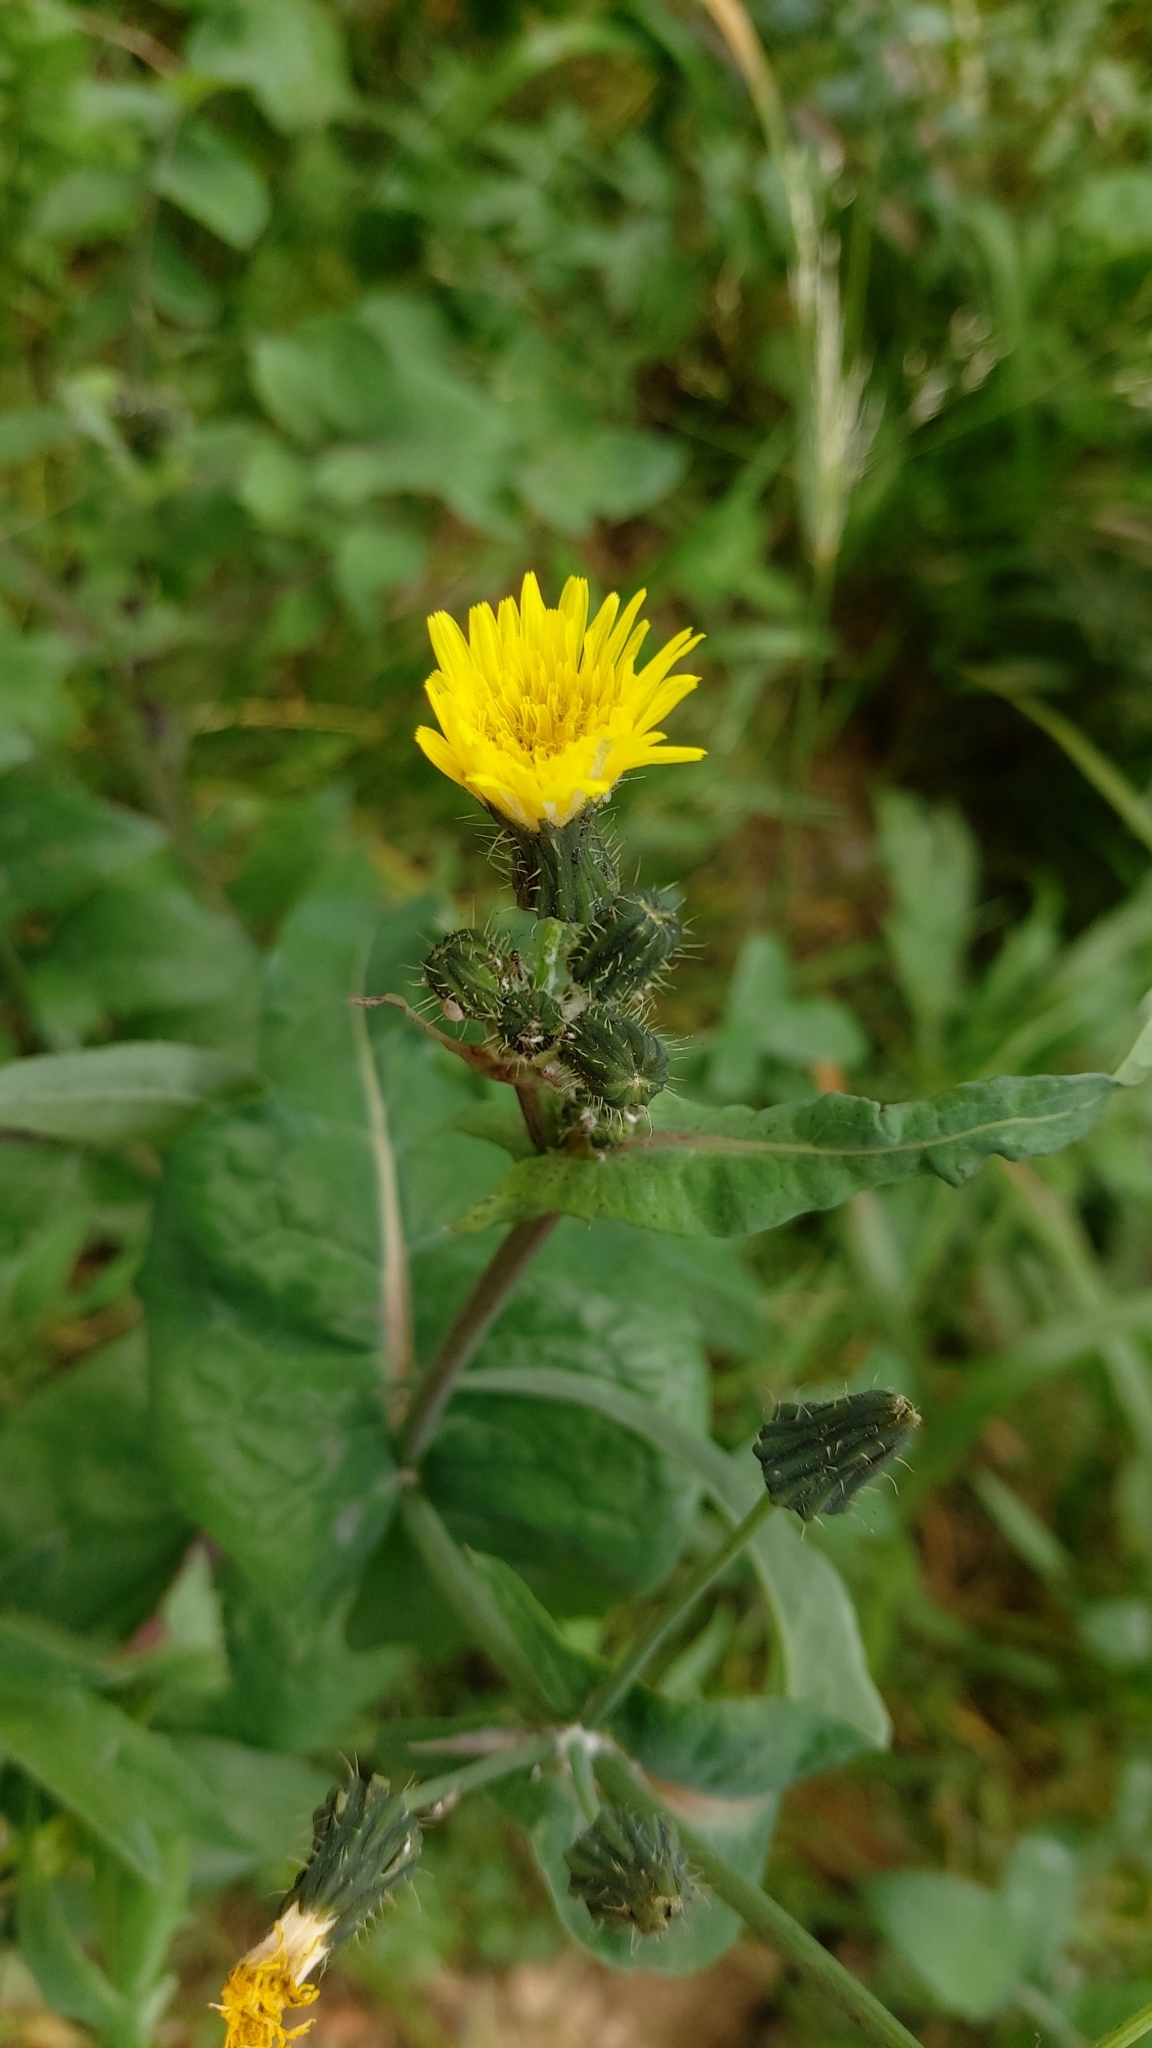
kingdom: Plantae
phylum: Tracheophyta
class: Magnoliopsida
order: Asterales
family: Asteraceae
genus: Sonchus
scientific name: Sonchus oleraceus
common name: Common sowthistle
